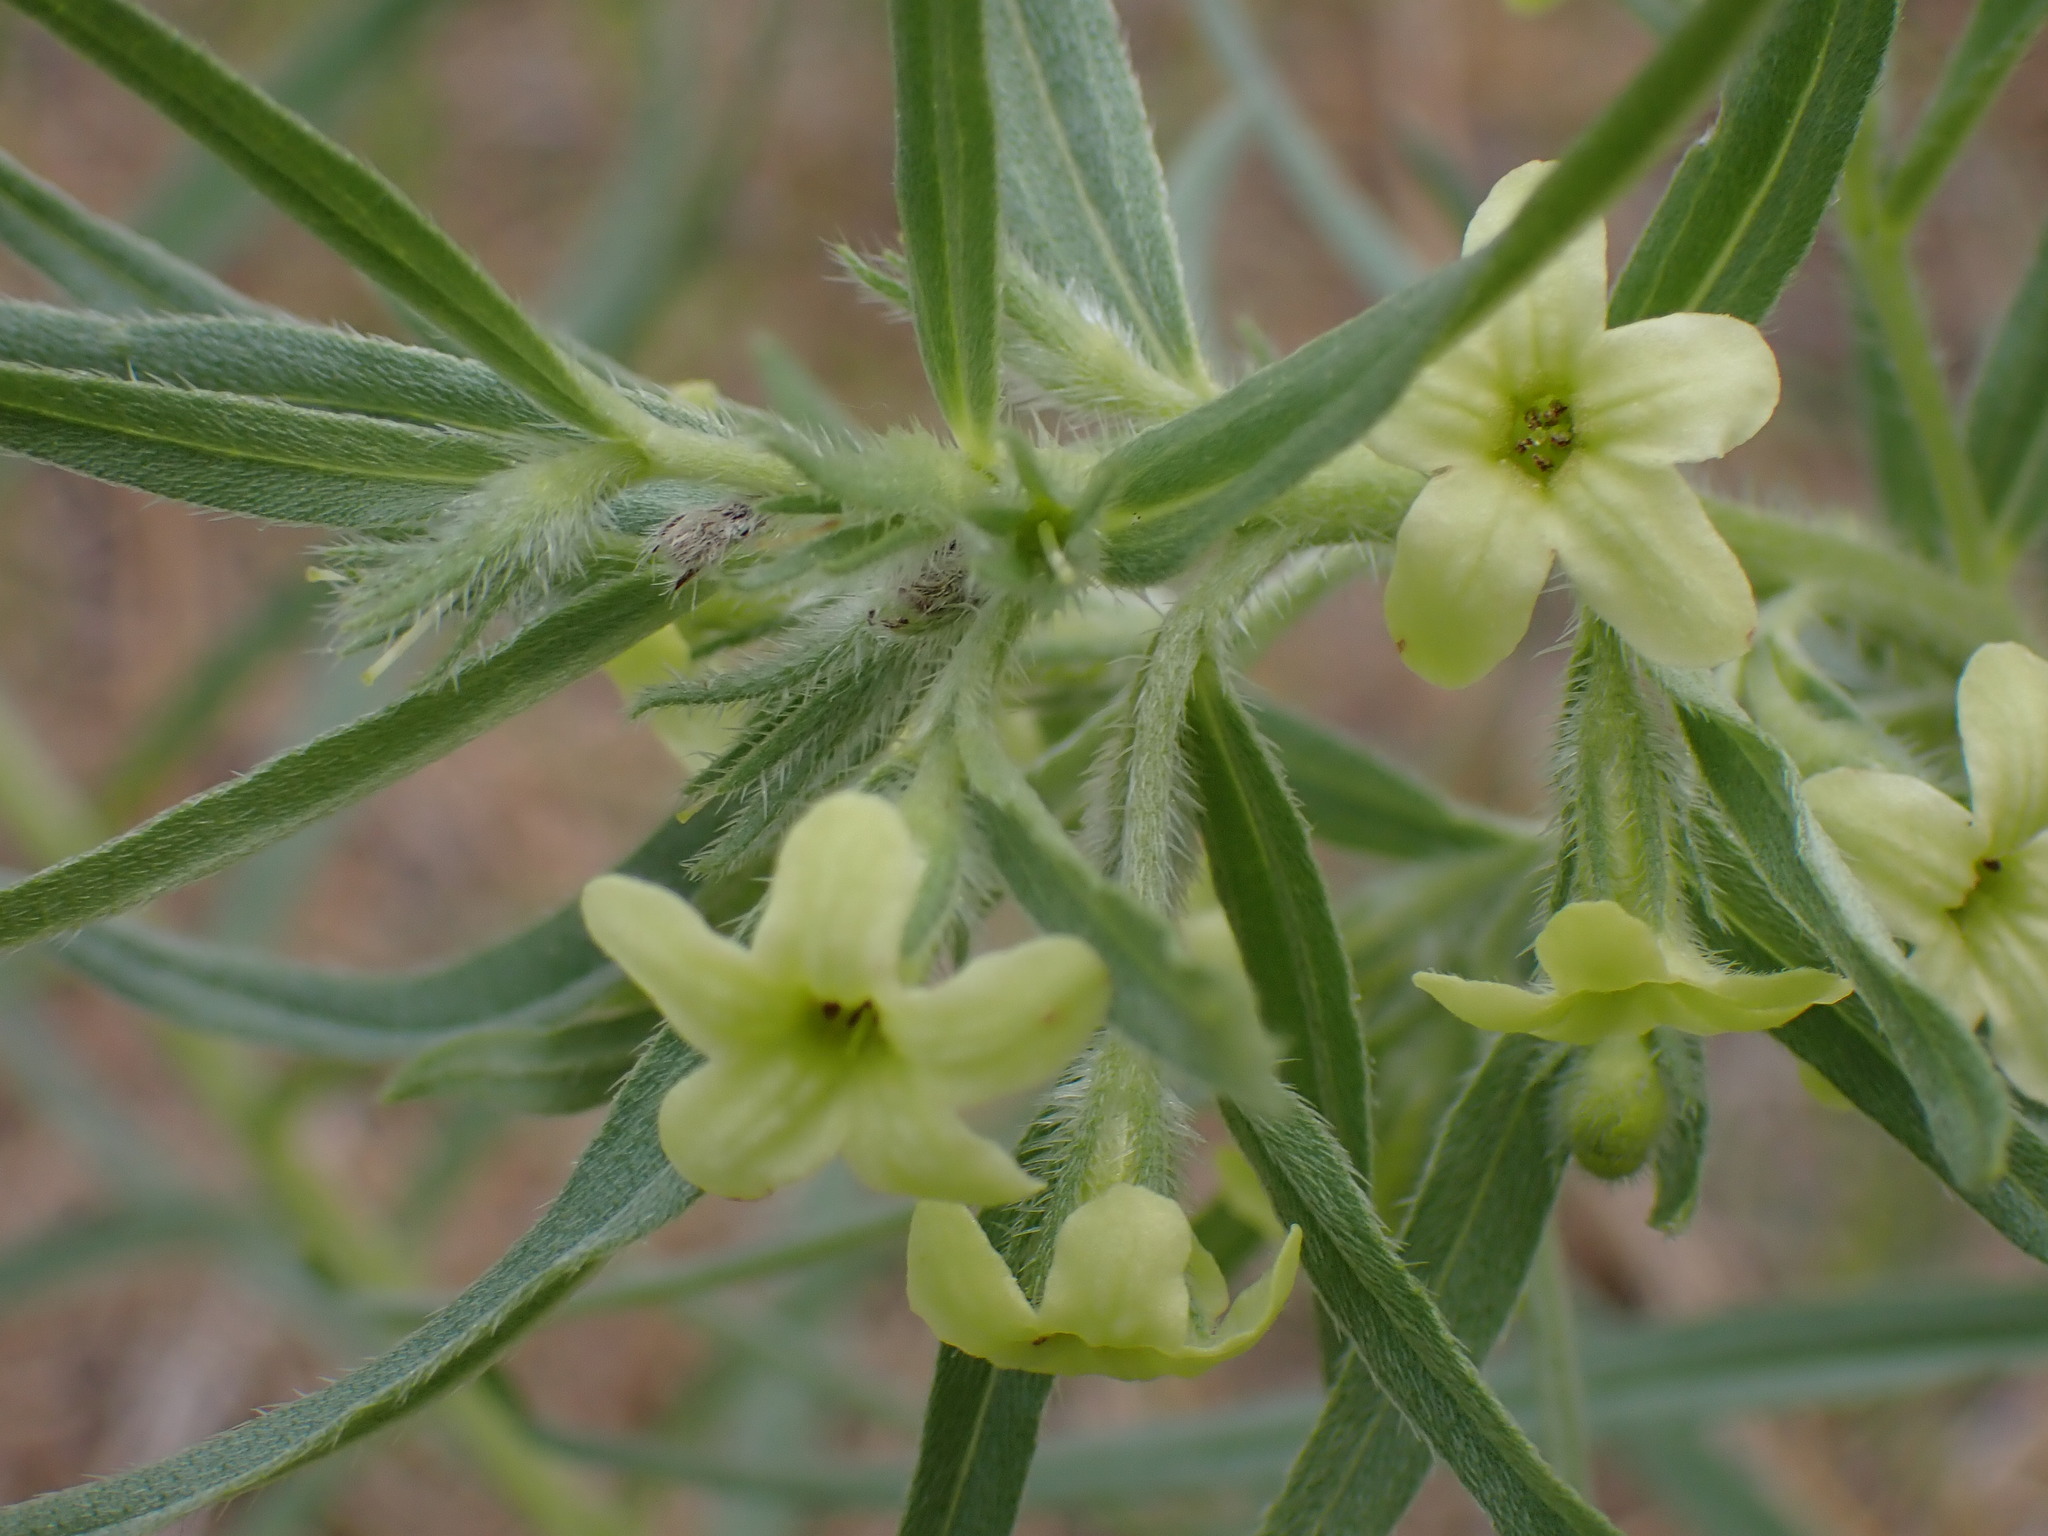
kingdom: Plantae
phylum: Tracheophyta
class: Magnoliopsida
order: Boraginales
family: Boraginaceae
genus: Lithospermum
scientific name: Lithospermum ruderale
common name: Western gromwell
